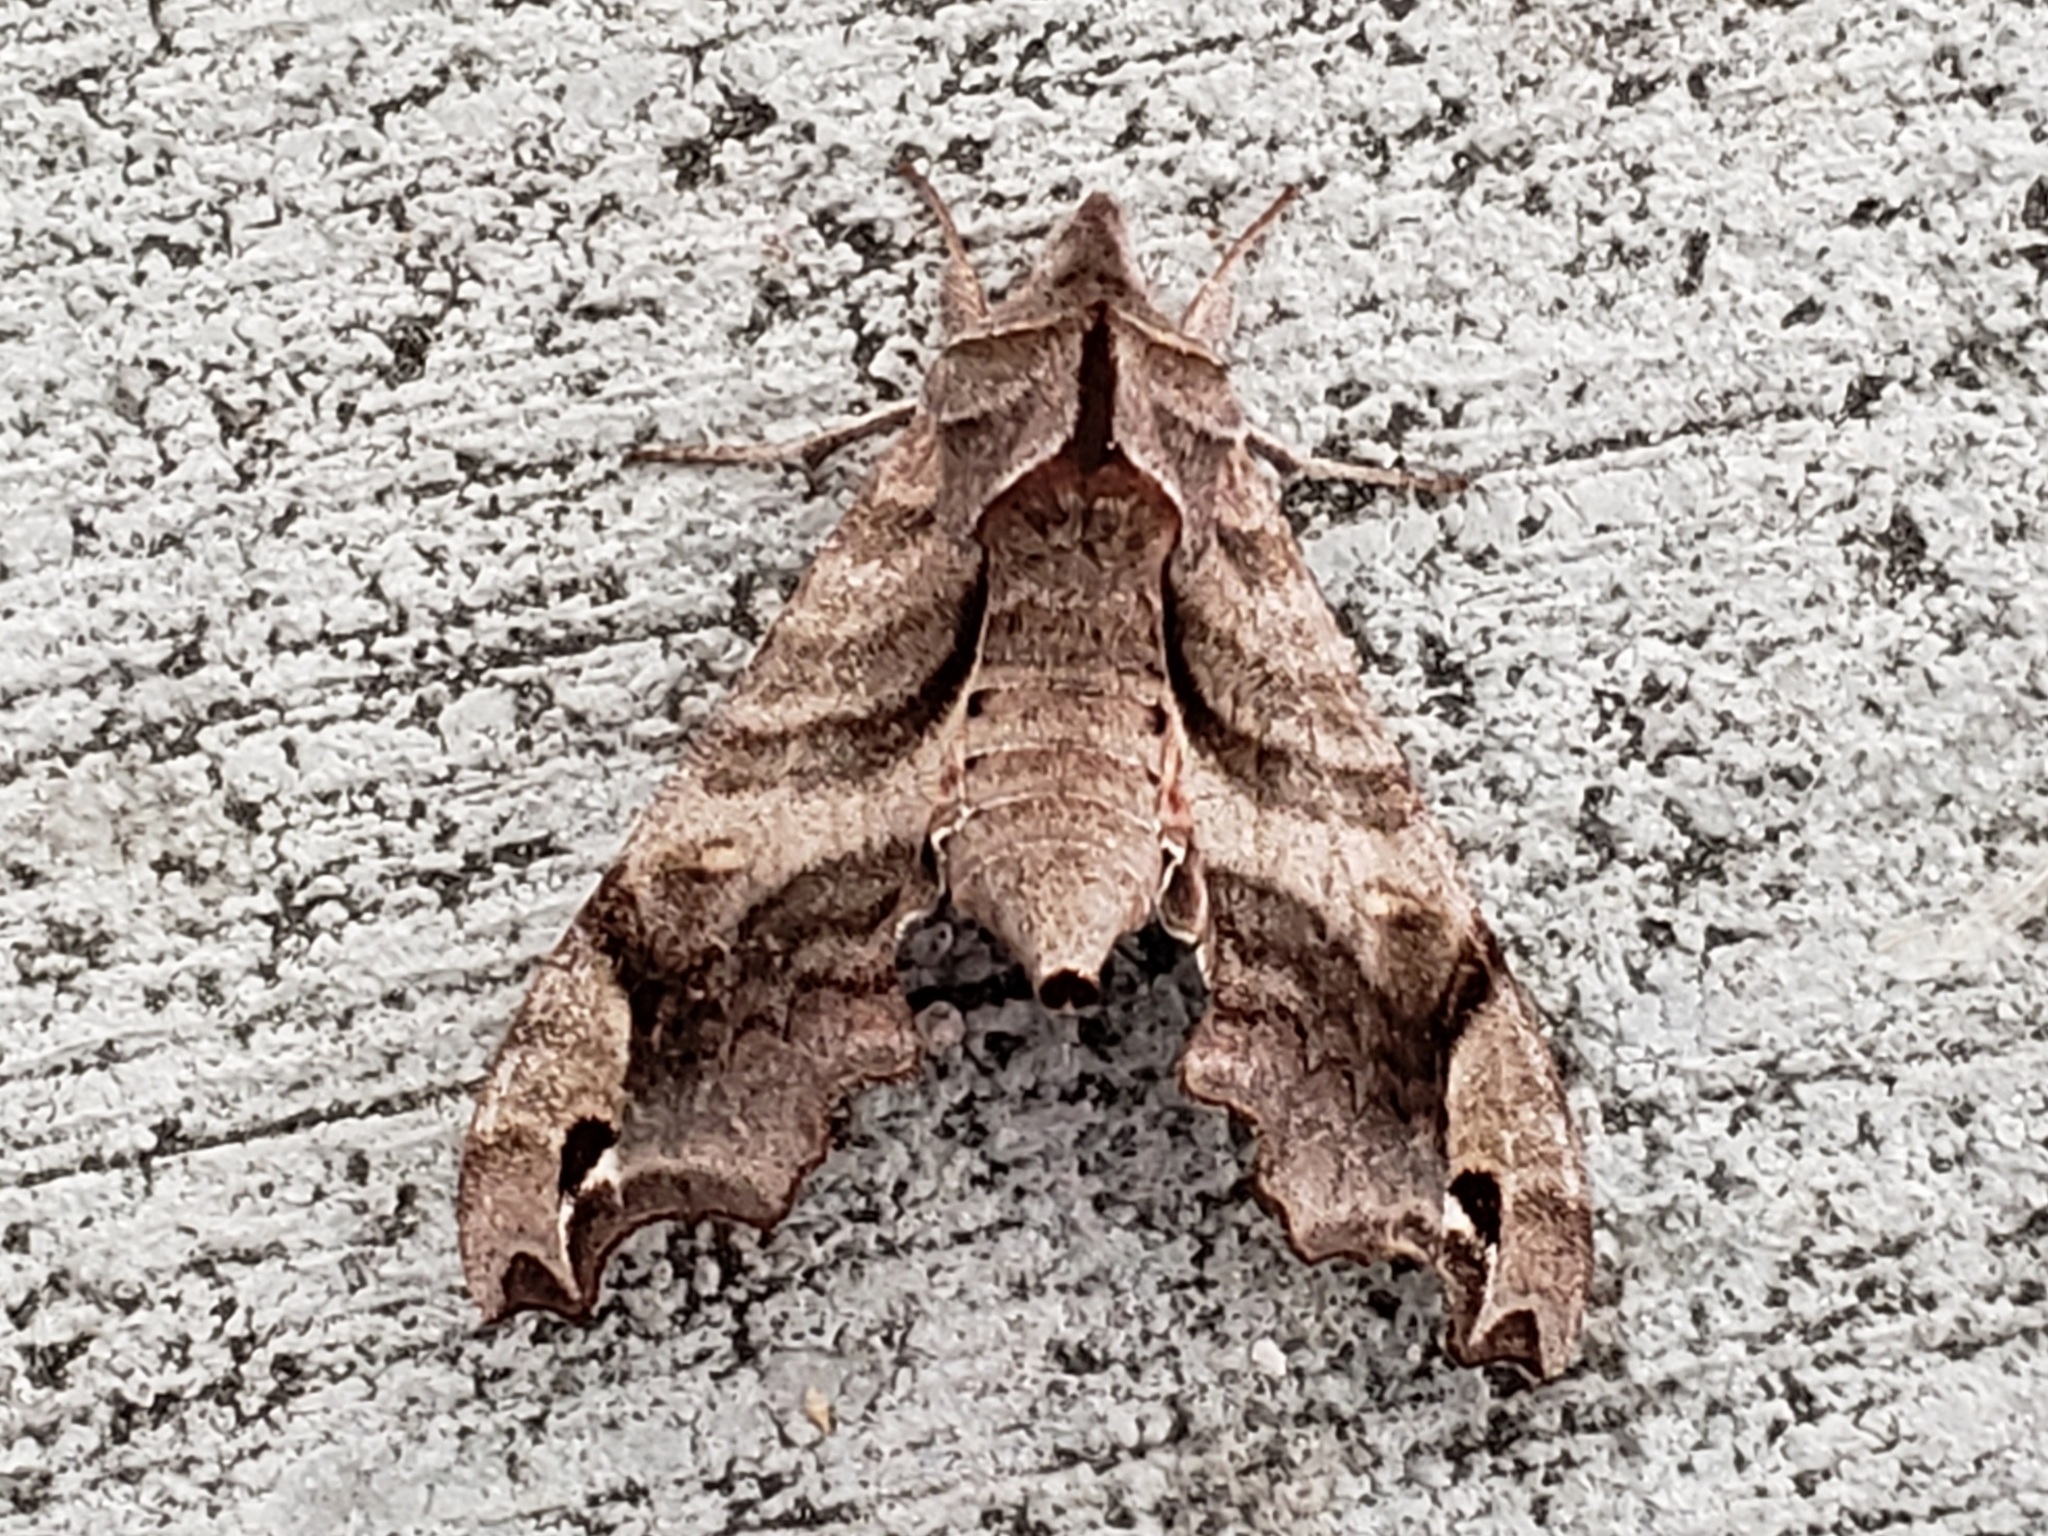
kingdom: Animalia
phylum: Arthropoda
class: Insecta
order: Lepidoptera
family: Sphingidae
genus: Deidamia
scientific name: Deidamia inscriptum
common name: Lettered sphinx
